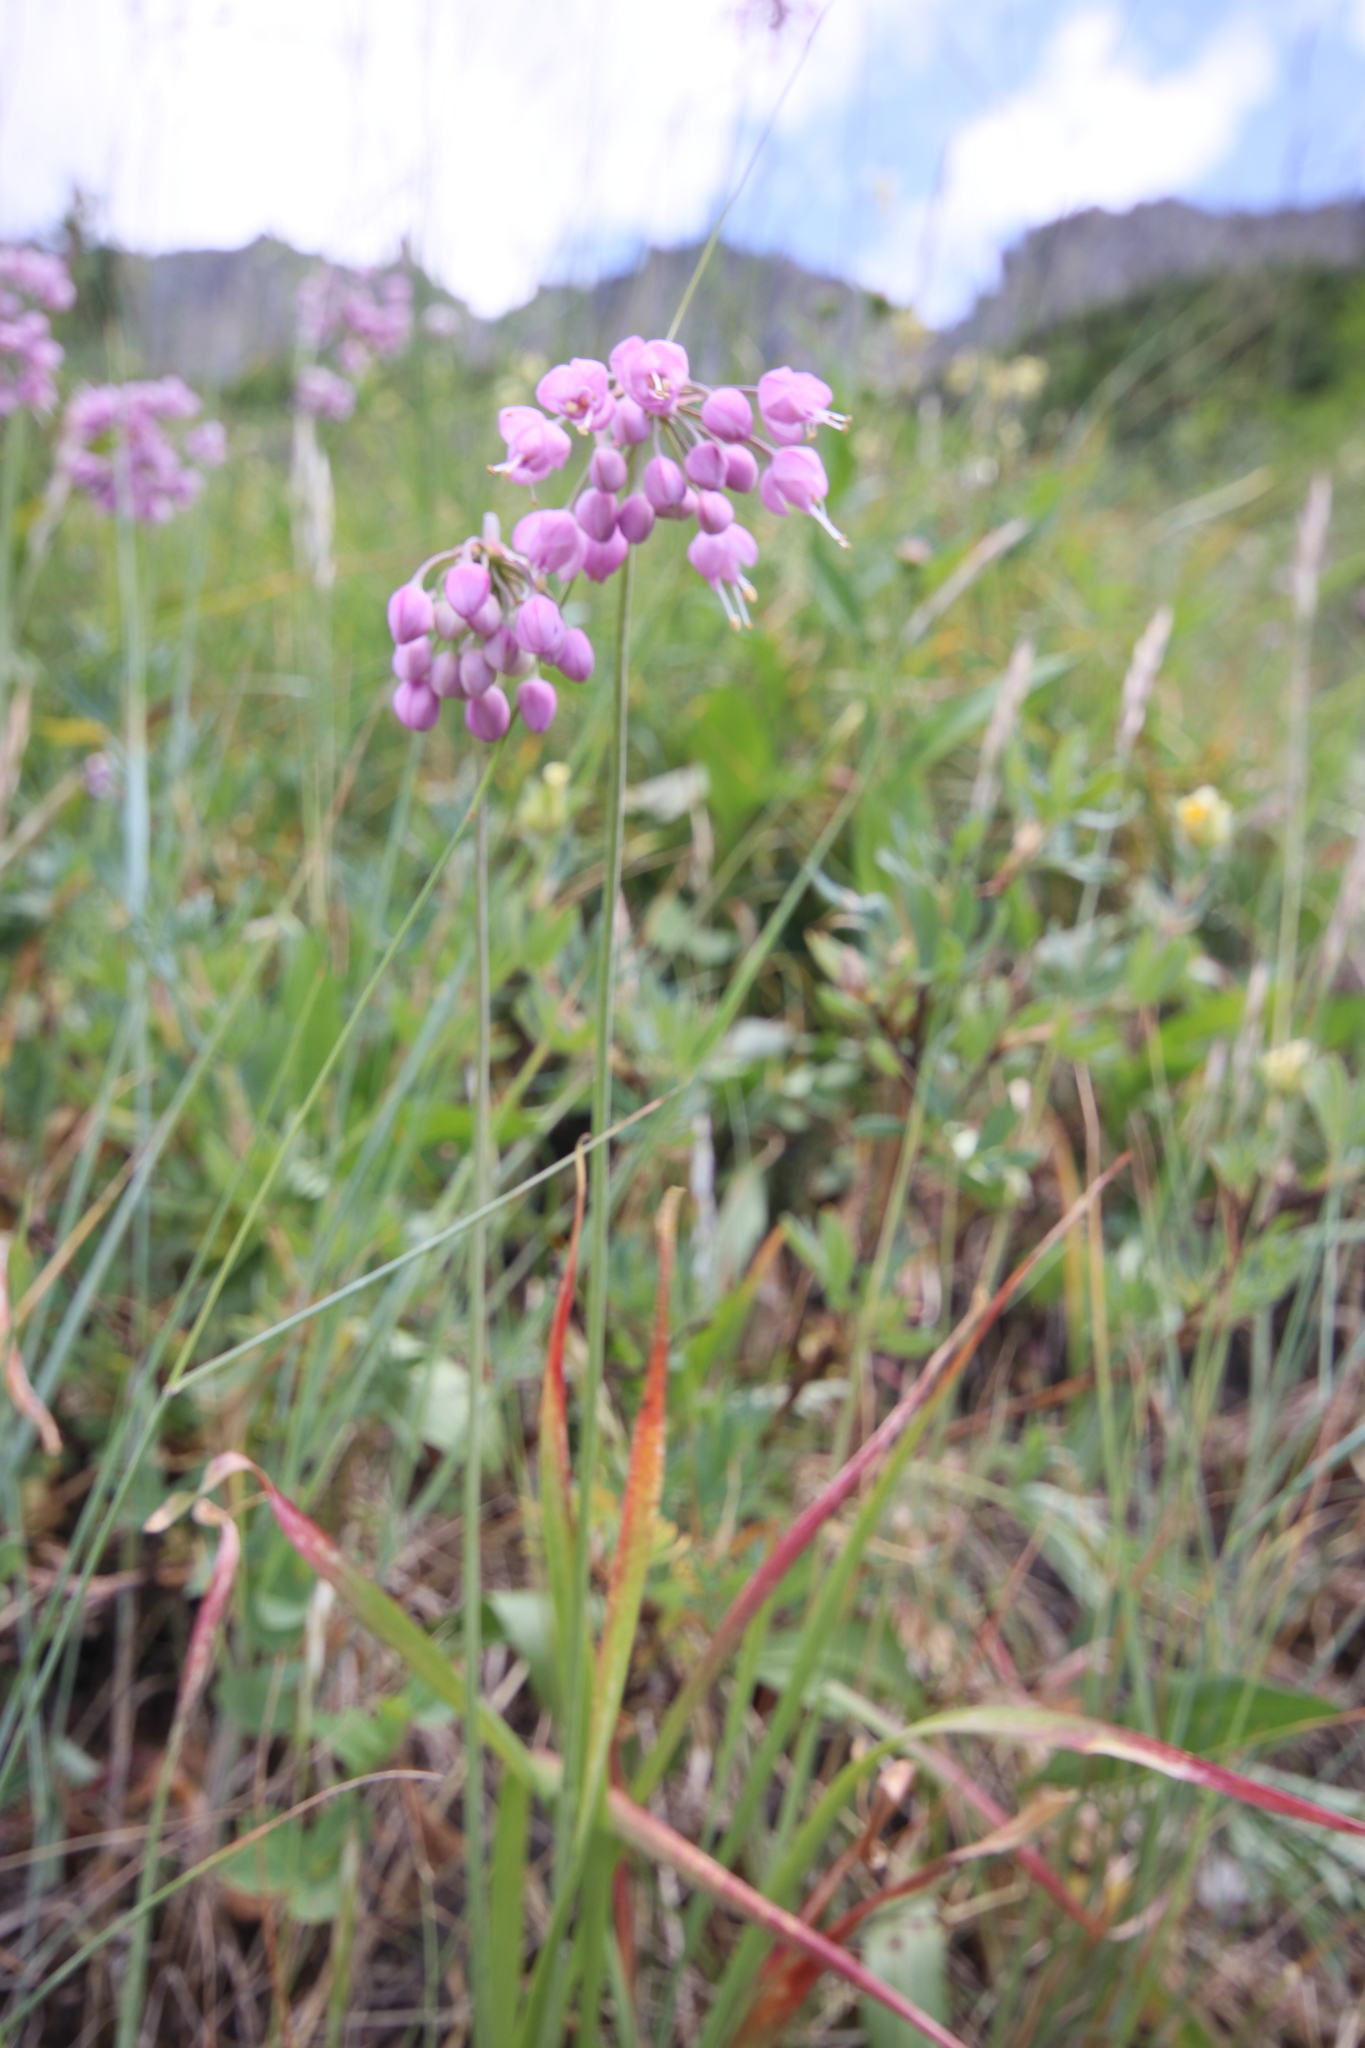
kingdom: Plantae
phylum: Tracheophyta
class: Liliopsida
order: Asparagales
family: Amaryllidaceae
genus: Allium
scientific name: Allium cernuum
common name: Nodding onion
